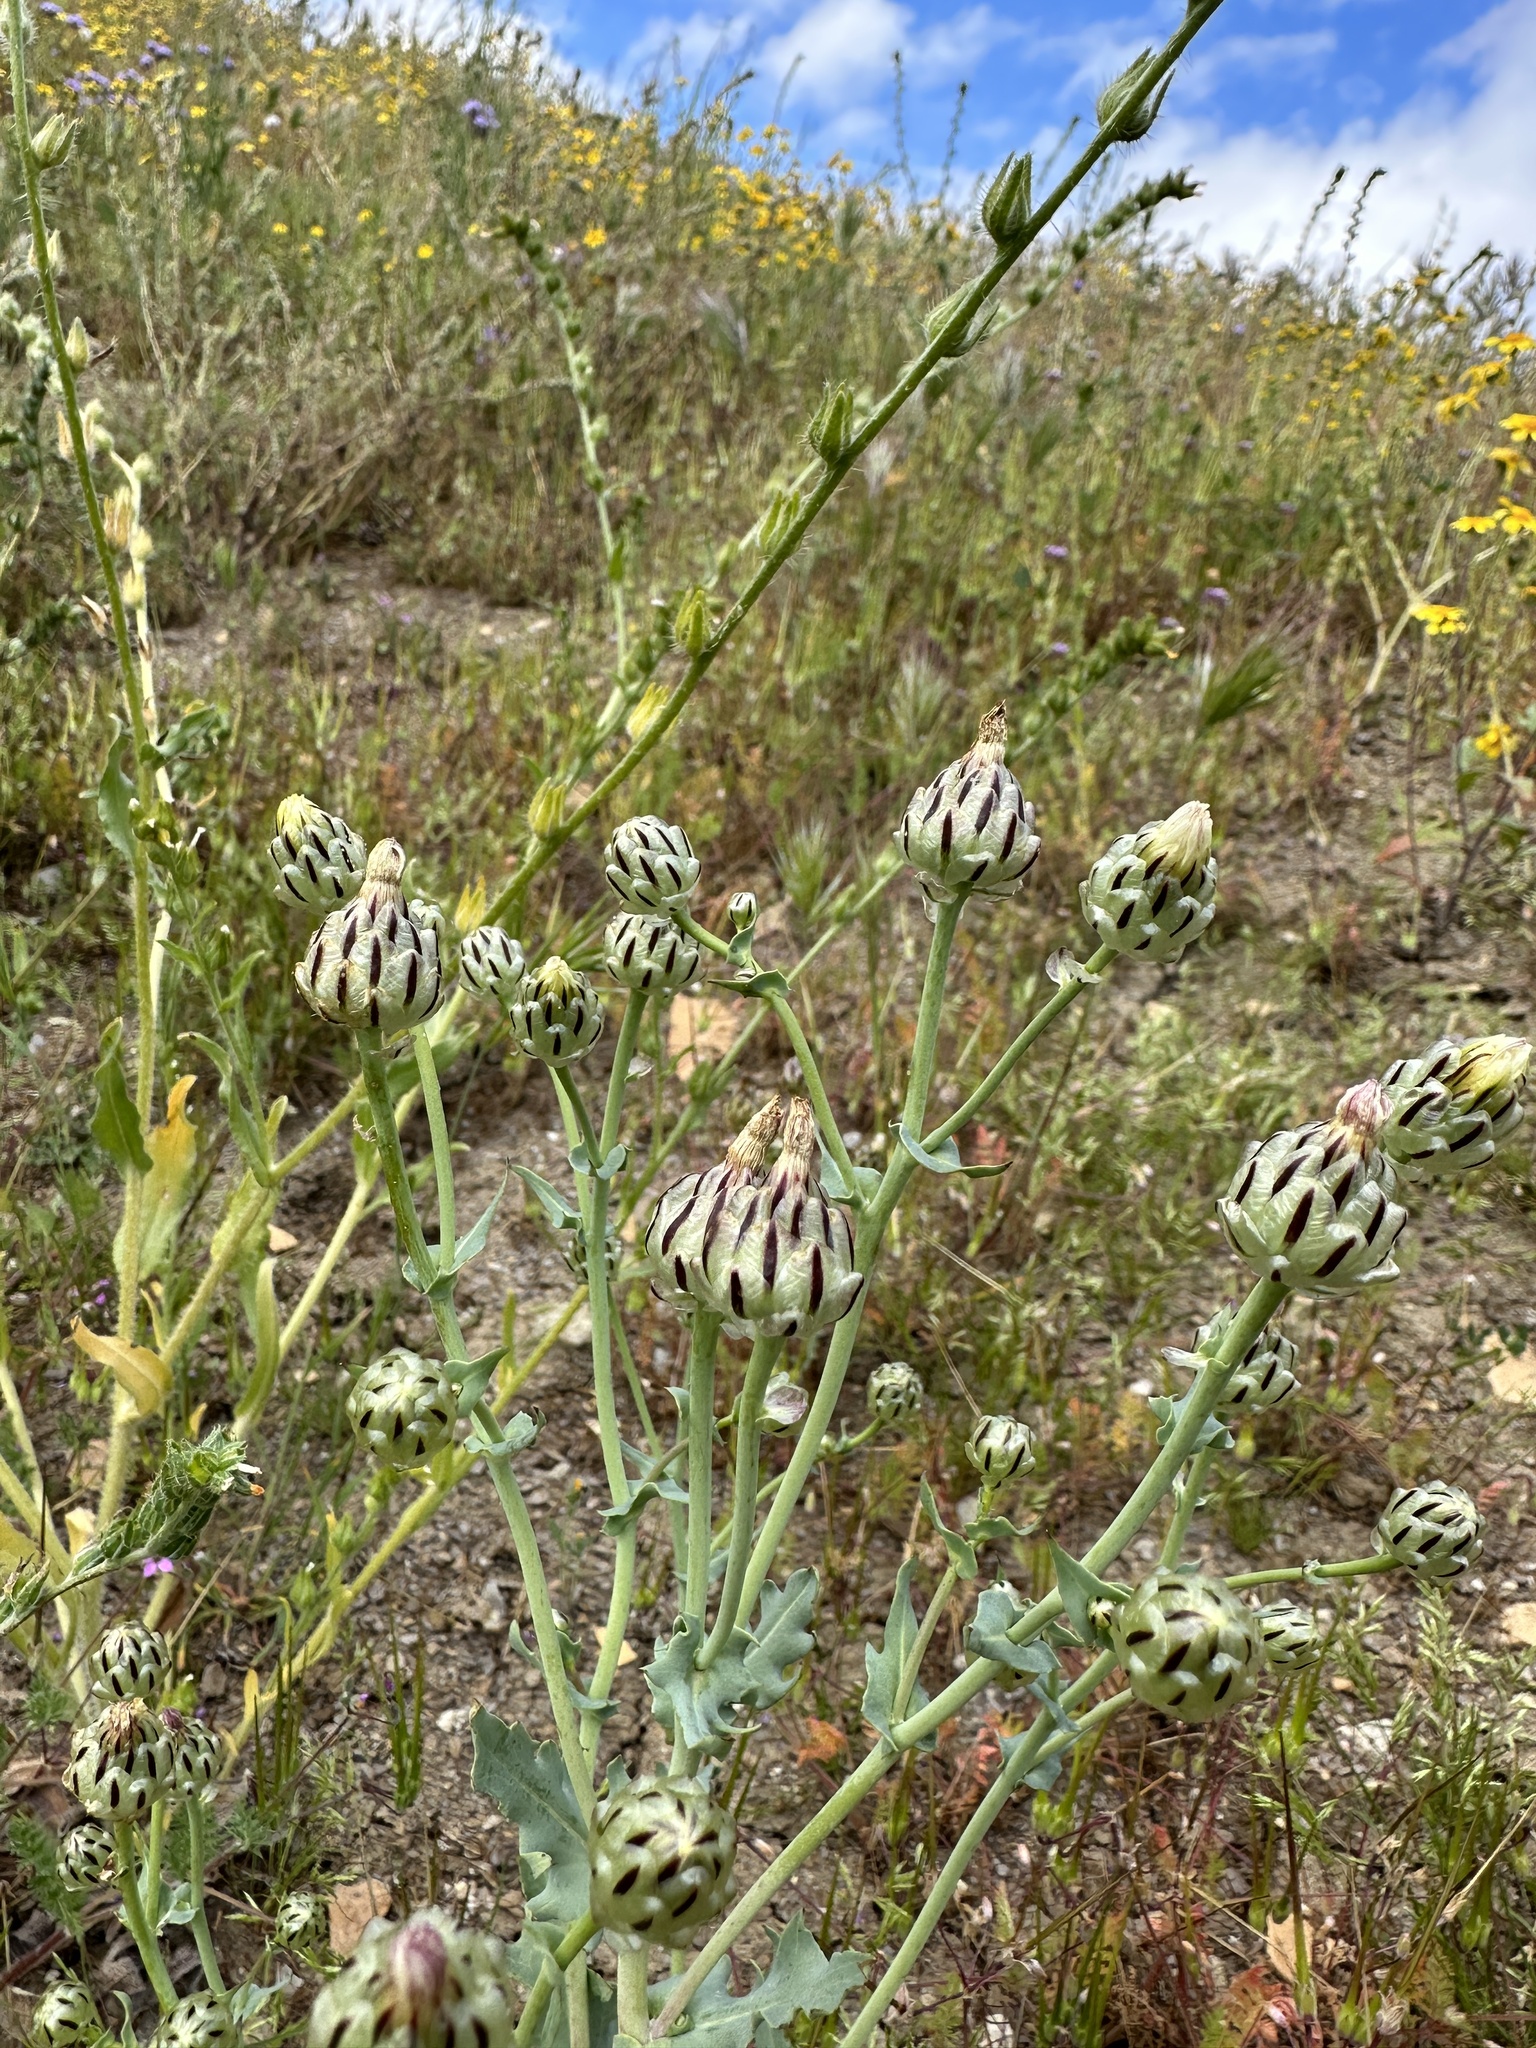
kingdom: Plantae
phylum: Tracheophyta
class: Magnoliopsida
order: Asterales
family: Asteraceae
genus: Malacothrix
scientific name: Malacothrix coulteri
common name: Snake's-head
